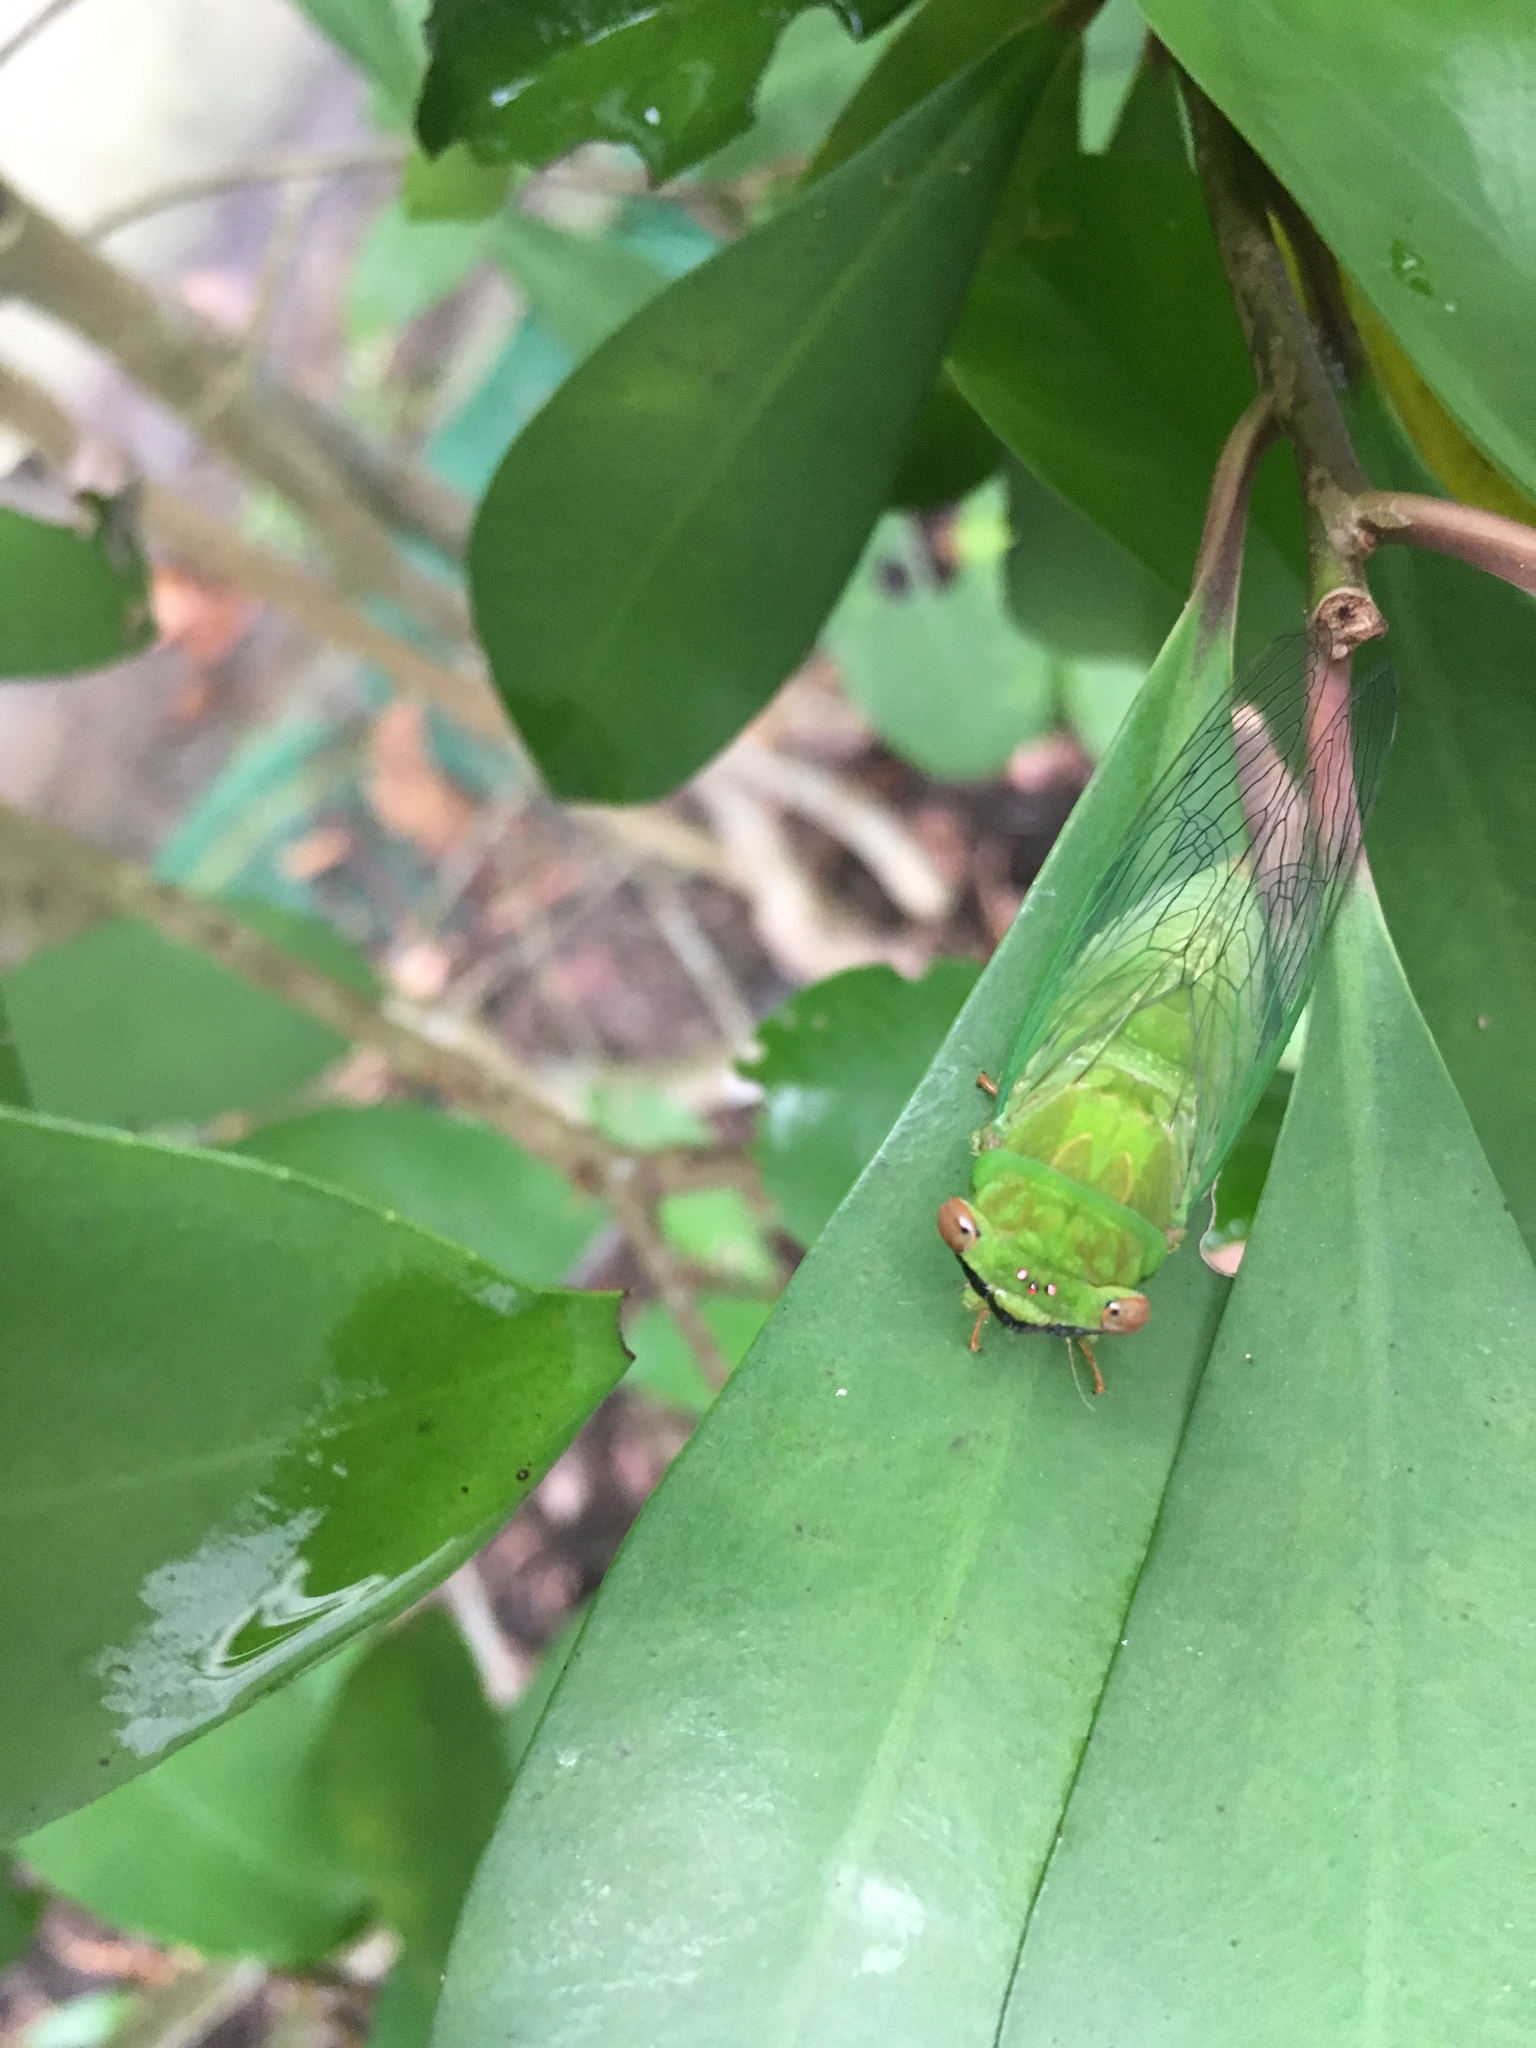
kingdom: Animalia
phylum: Arthropoda
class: Insecta
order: Hemiptera
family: Cicadidae
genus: Chremistica
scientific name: Chremistica ochracea
